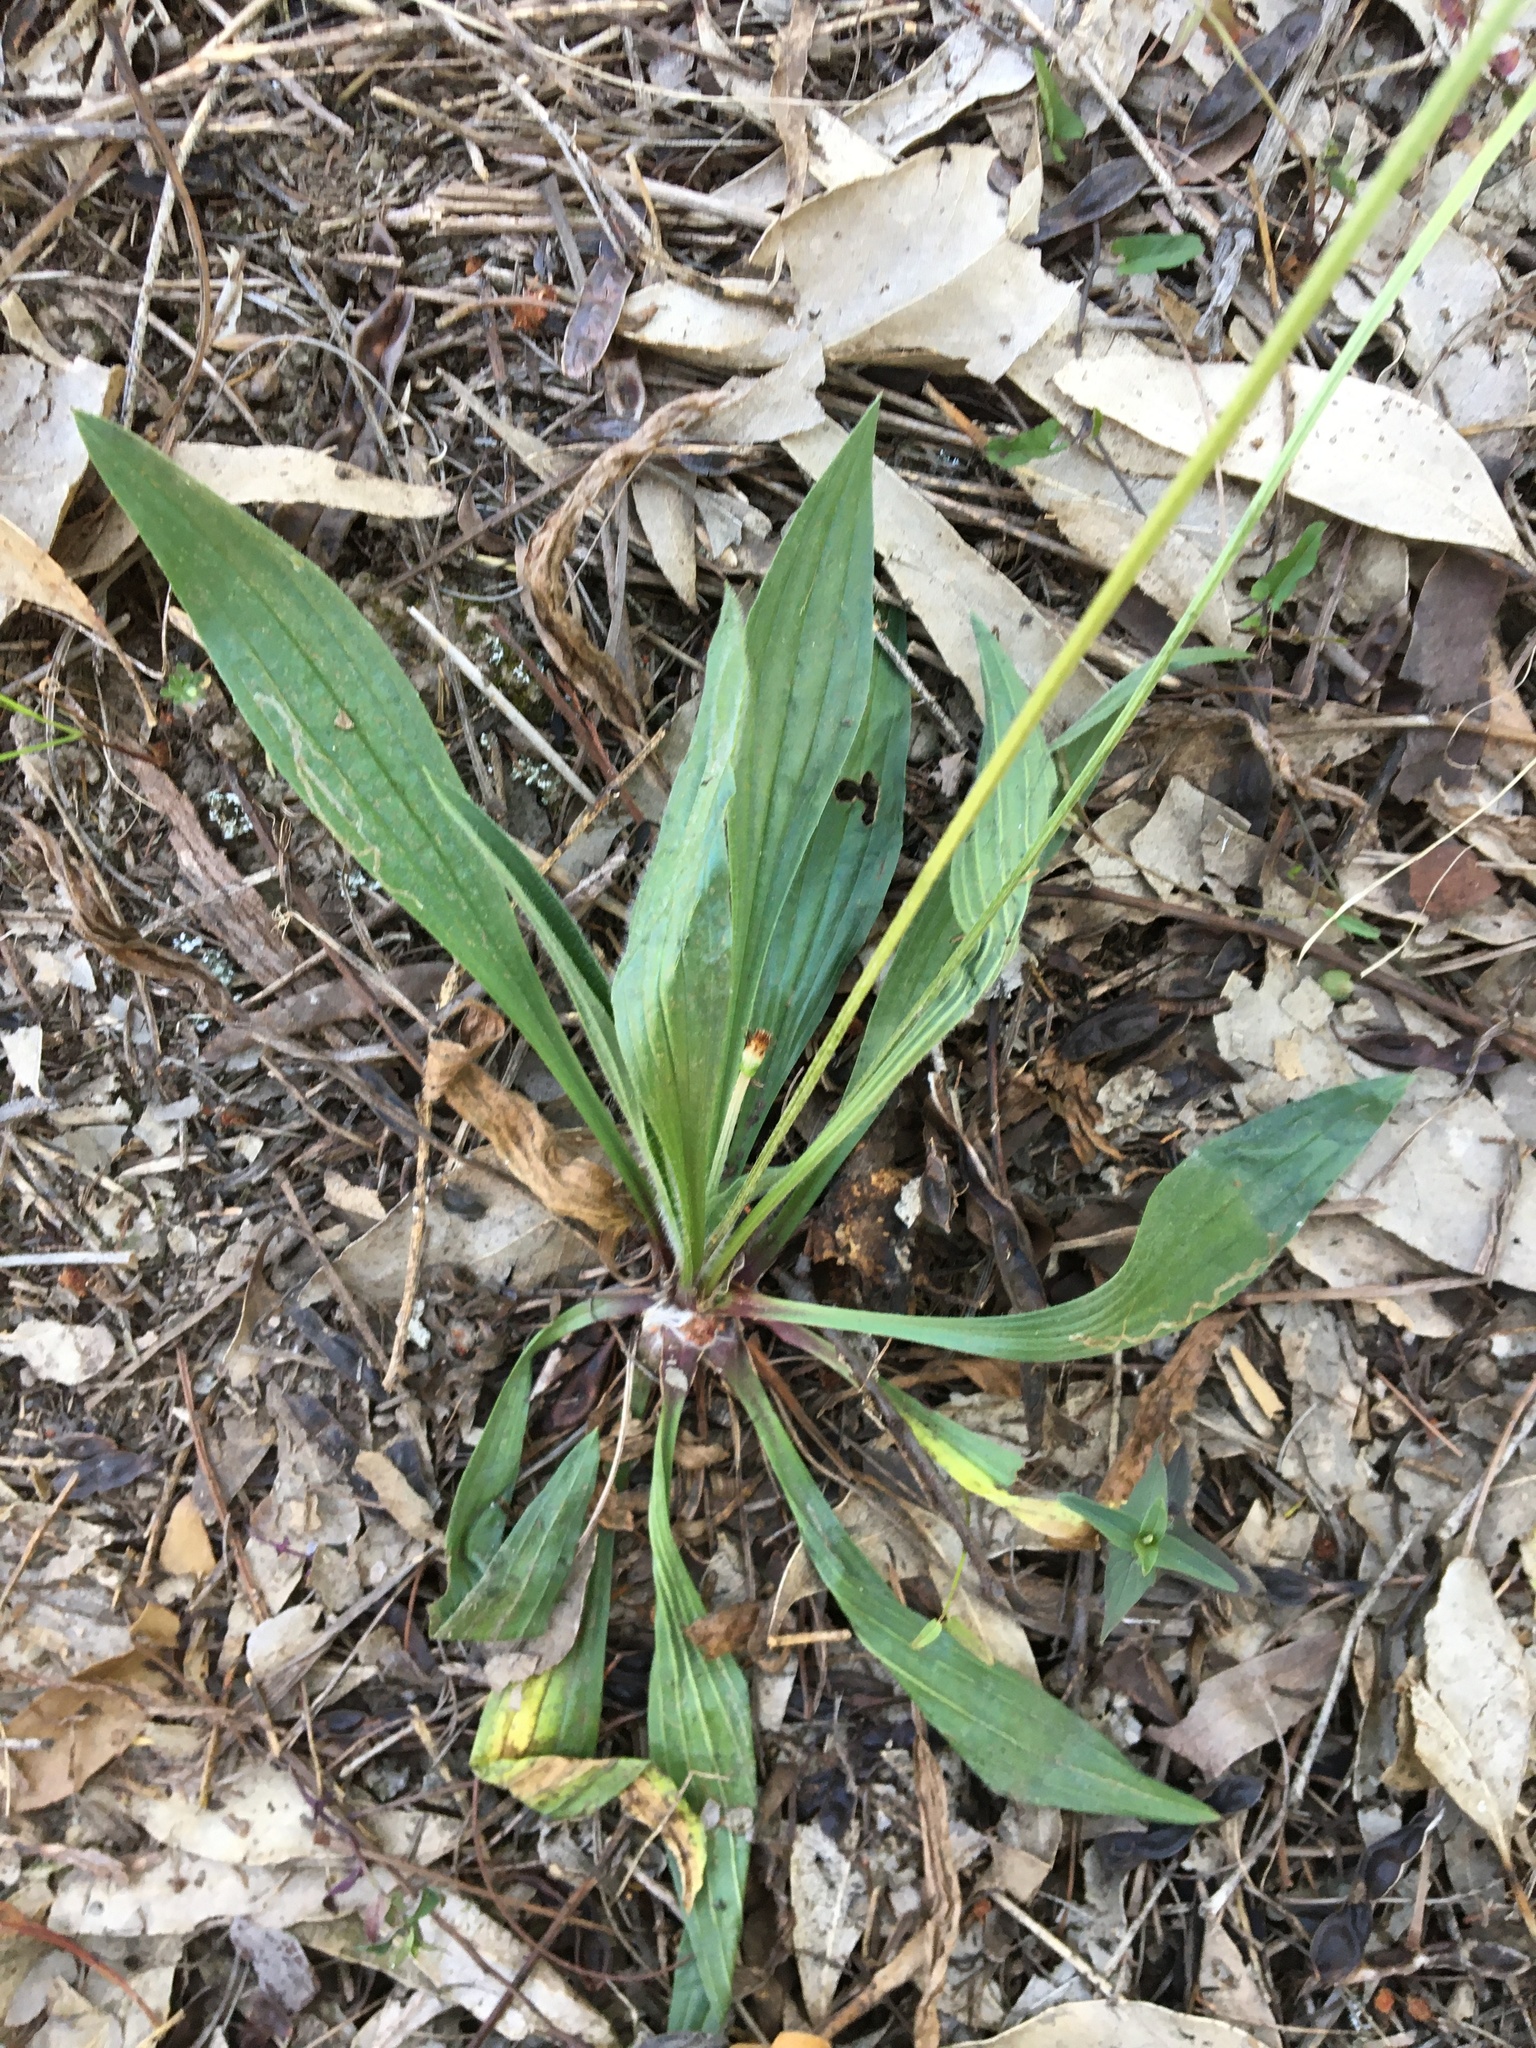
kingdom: Plantae
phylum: Tracheophyta
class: Magnoliopsida
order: Lamiales
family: Plantaginaceae
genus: Plantago
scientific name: Plantago lanceolata
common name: Ribwort plantain
